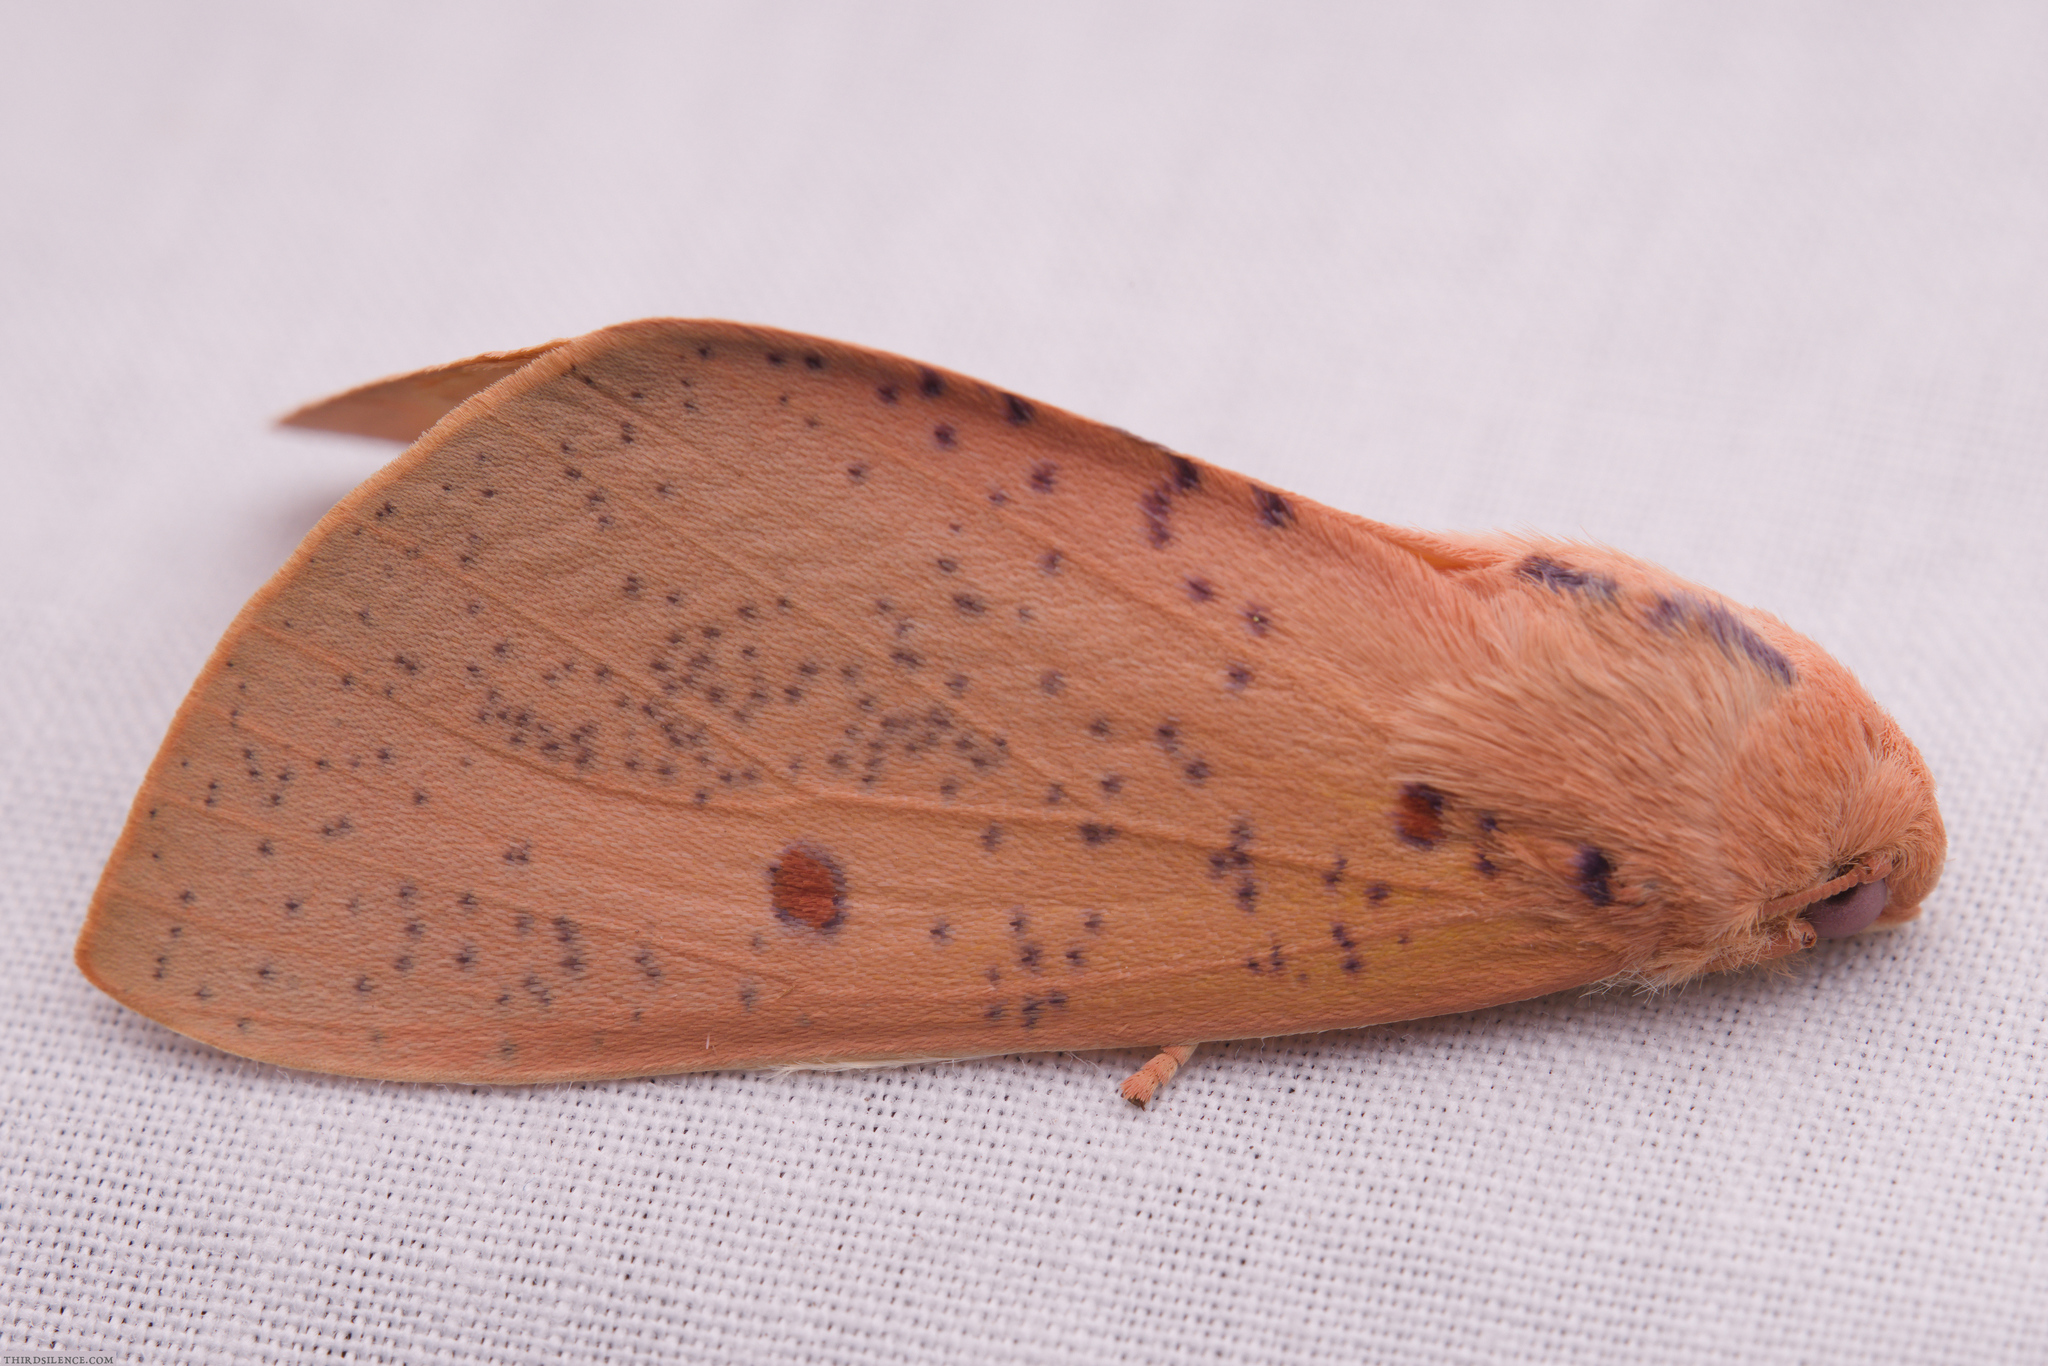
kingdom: Animalia
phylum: Arthropoda
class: Insecta
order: Lepidoptera
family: Geometridae
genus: Plesanemma
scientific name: Plesanemma fucata
